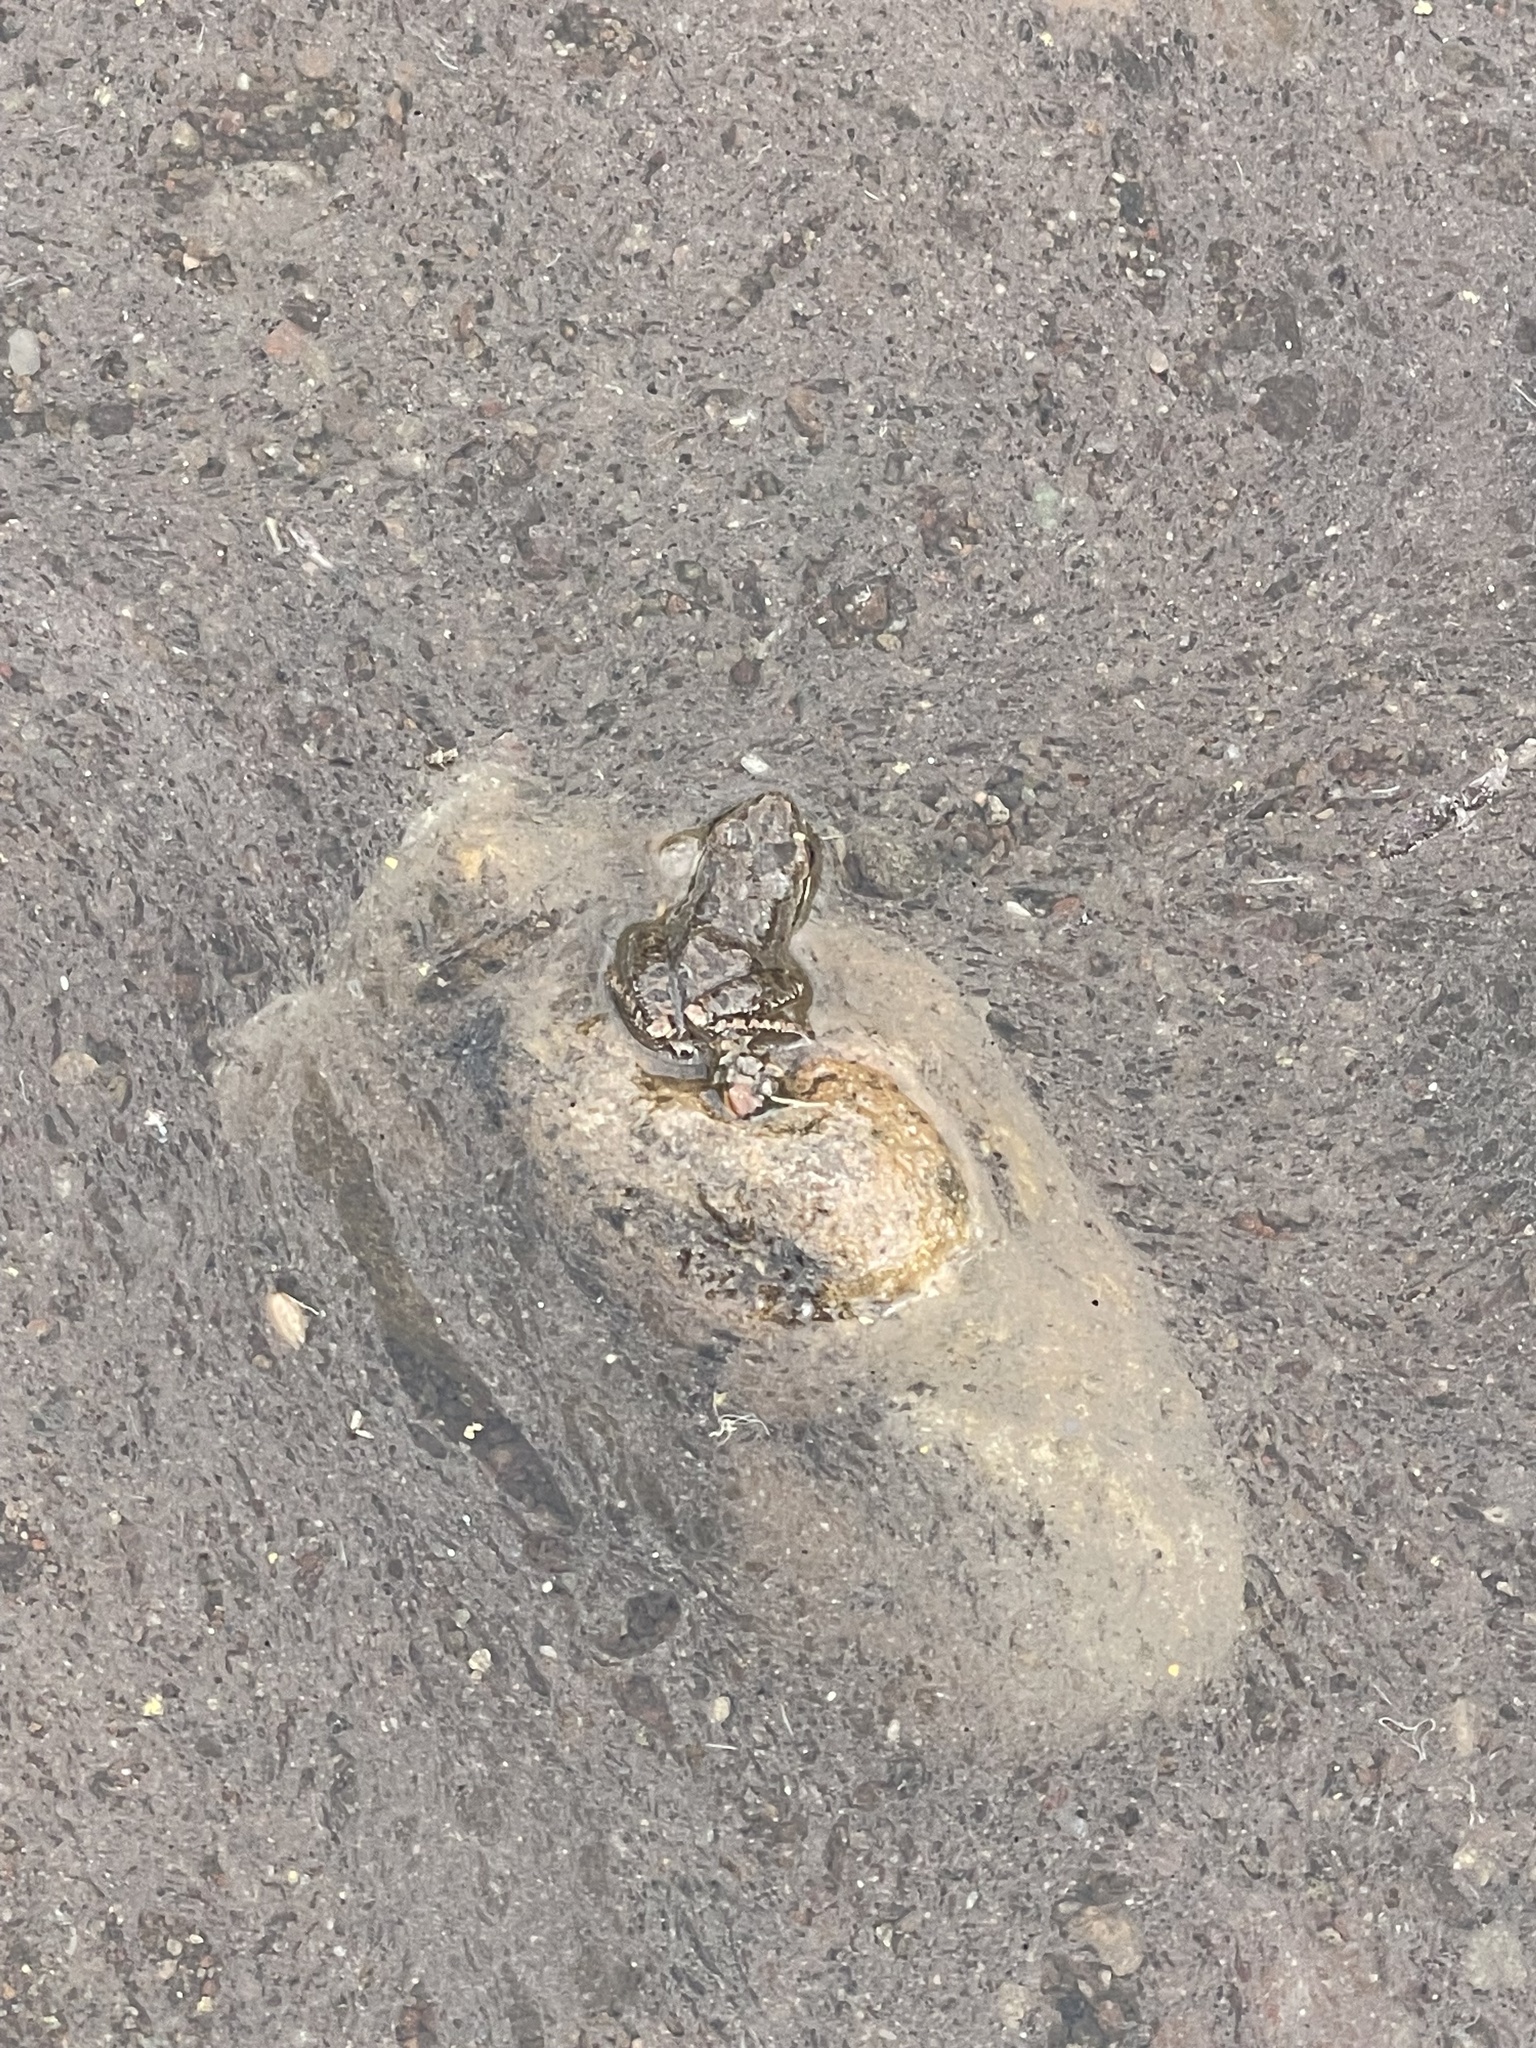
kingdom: Animalia
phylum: Chordata
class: Amphibia
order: Anura
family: Hylidae
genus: Pseudacris
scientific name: Pseudacris regilla
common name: Pacific chorus frog
